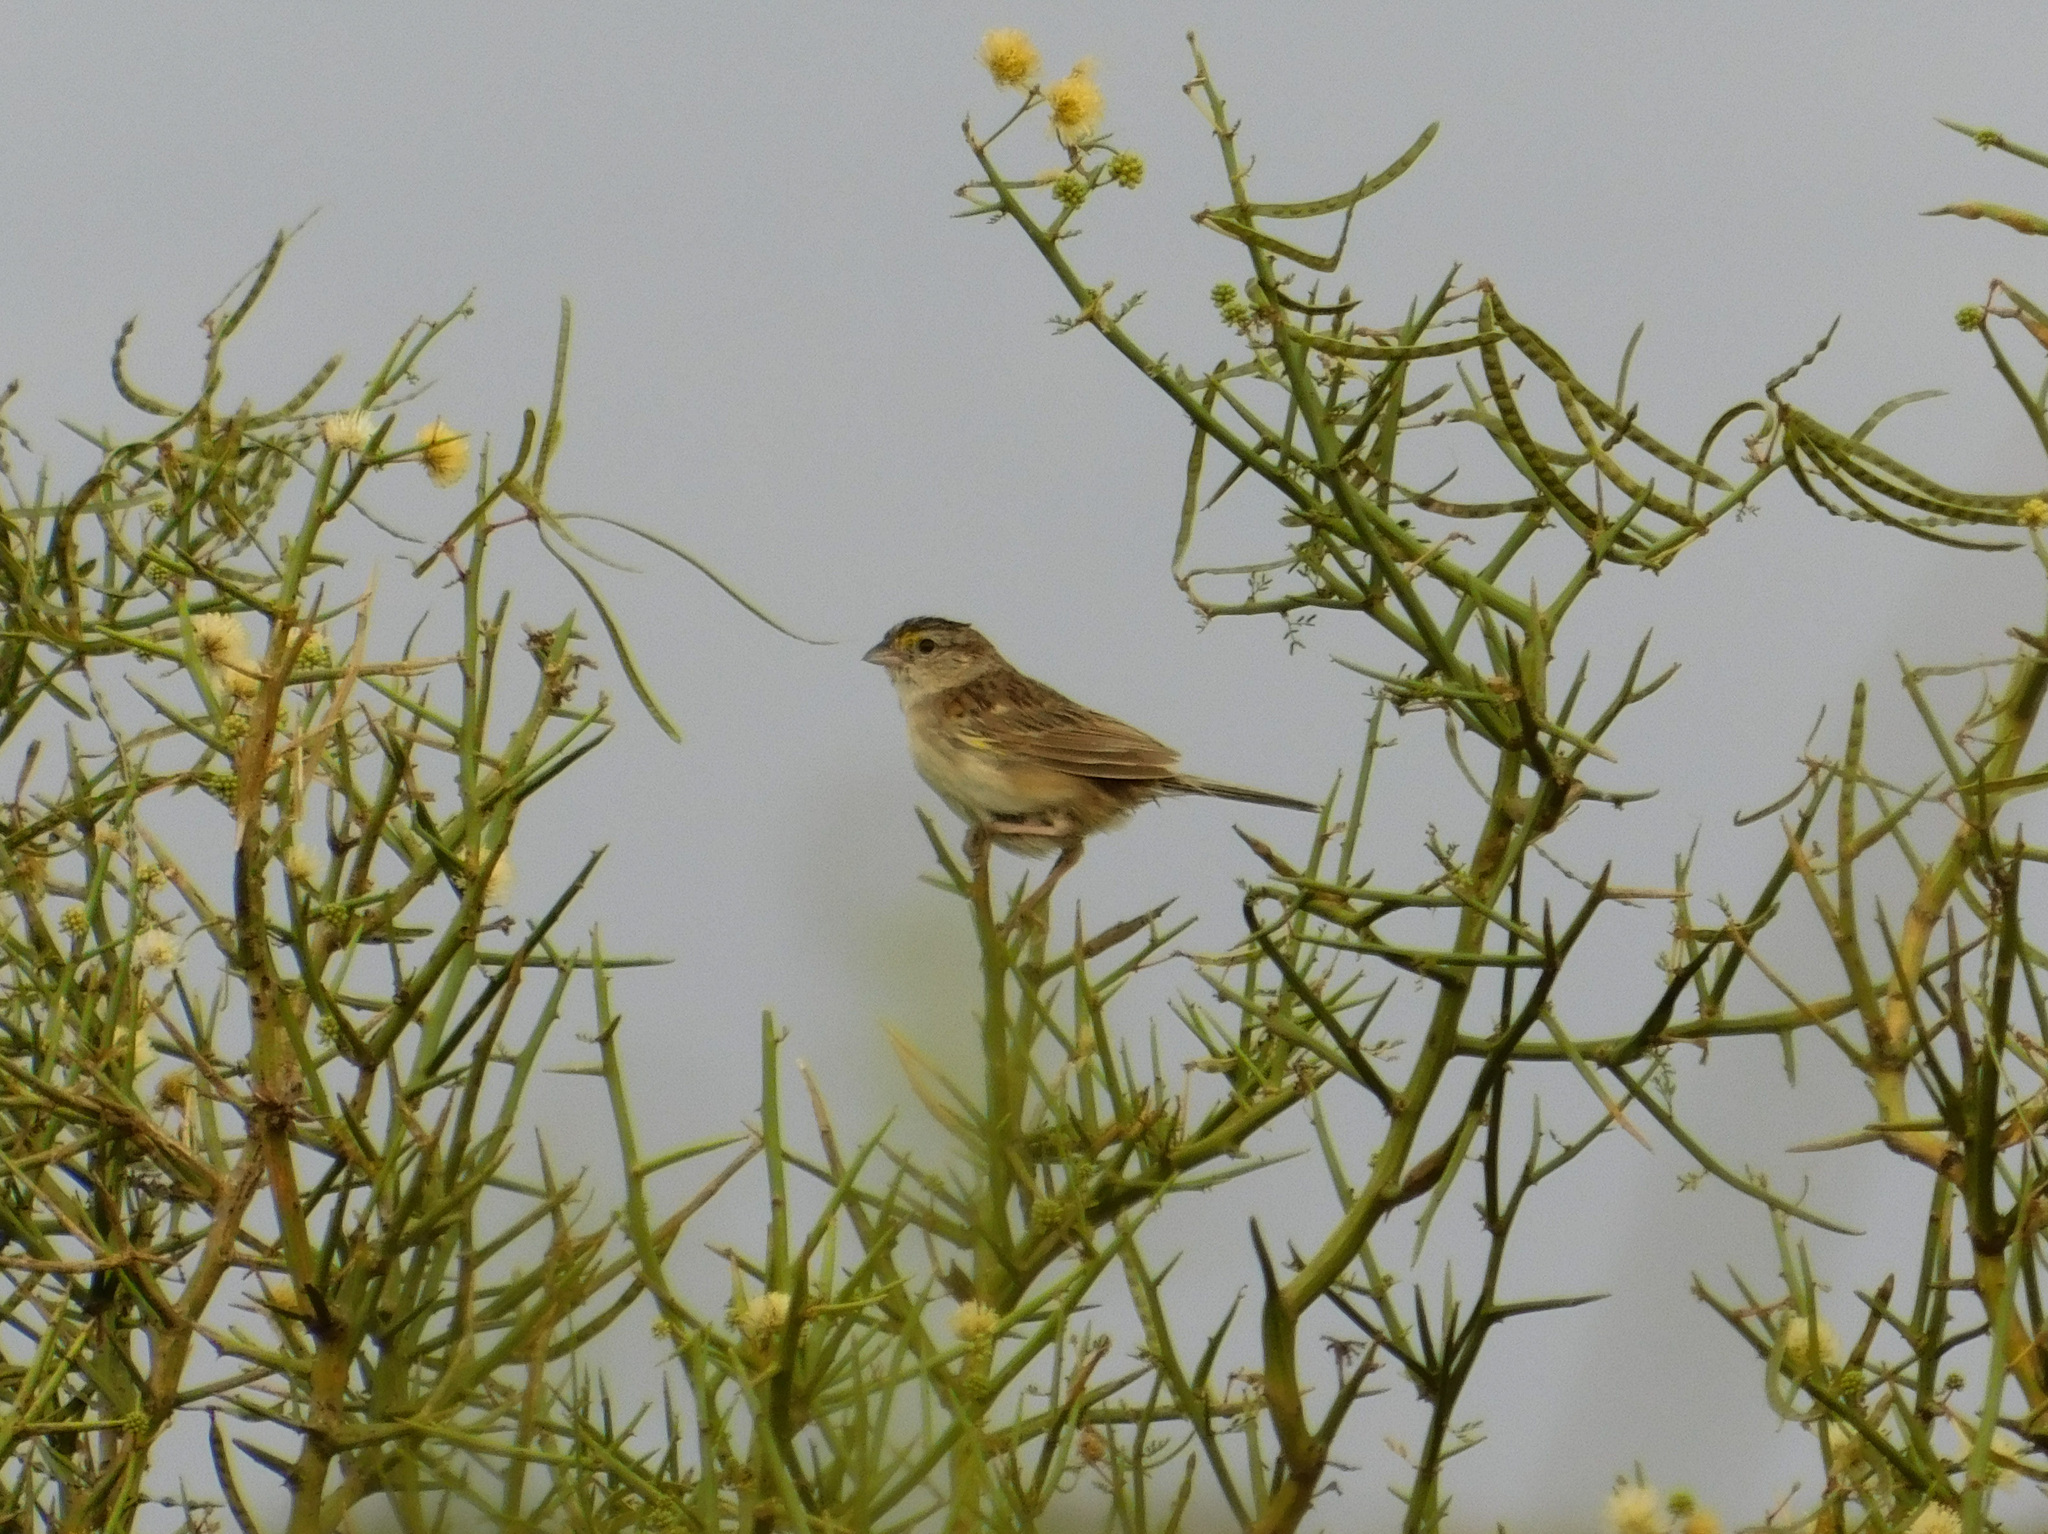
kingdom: Animalia
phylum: Chordata
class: Aves
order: Passeriformes
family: Passerellidae
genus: Ammodramus
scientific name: Ammodramus humeralis
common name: Grassland sparrow
